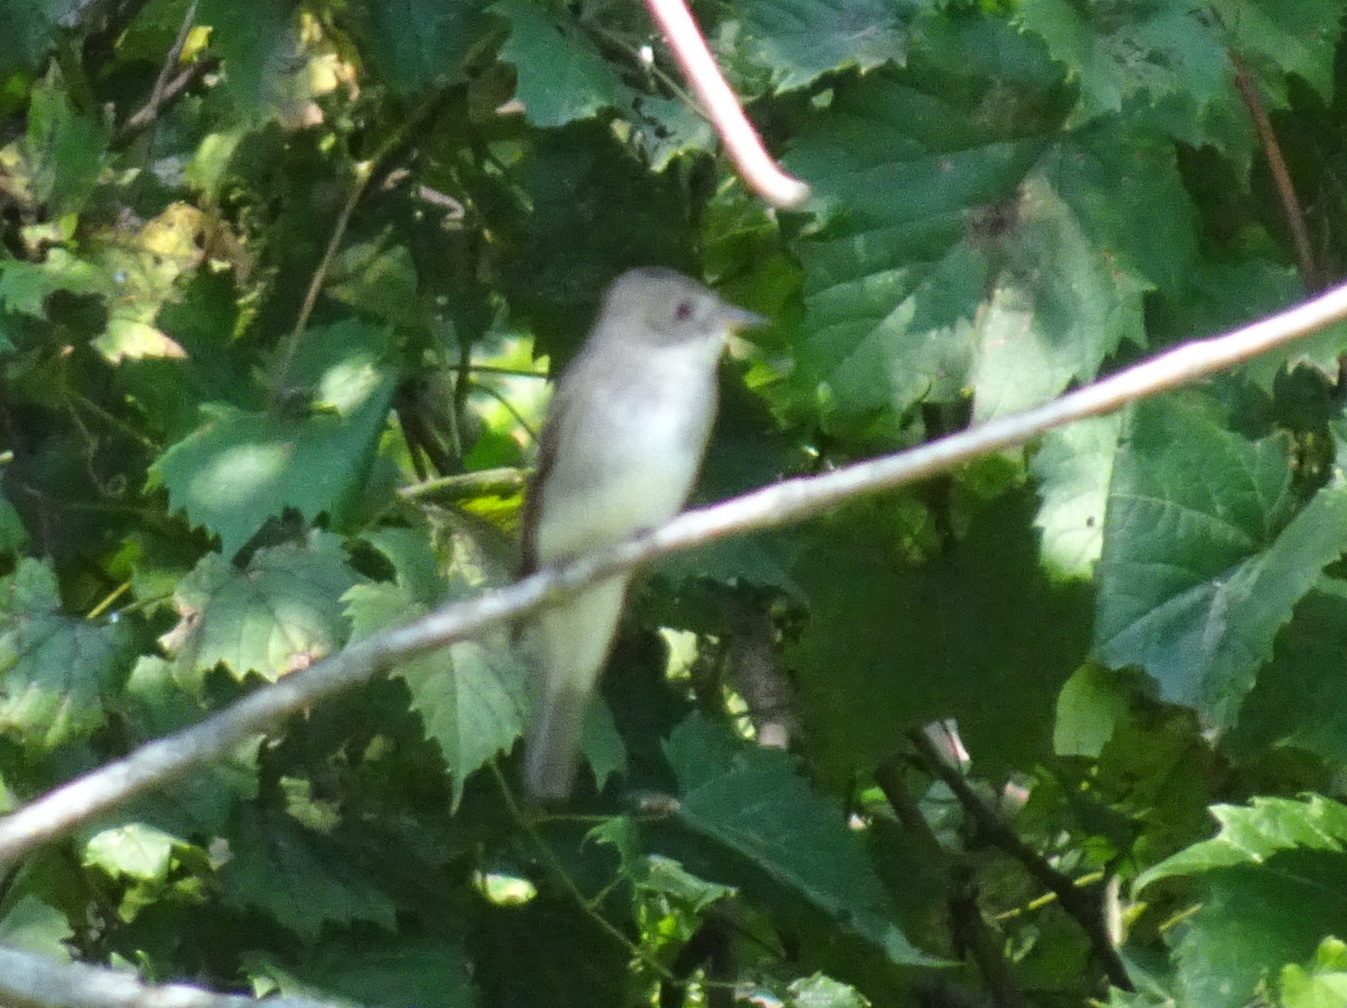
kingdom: Animalia
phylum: Chordata
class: Aves
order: Passeriformes
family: Tyrannidae
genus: Contopus
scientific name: Contopus virens
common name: Eastern wood-pewee
